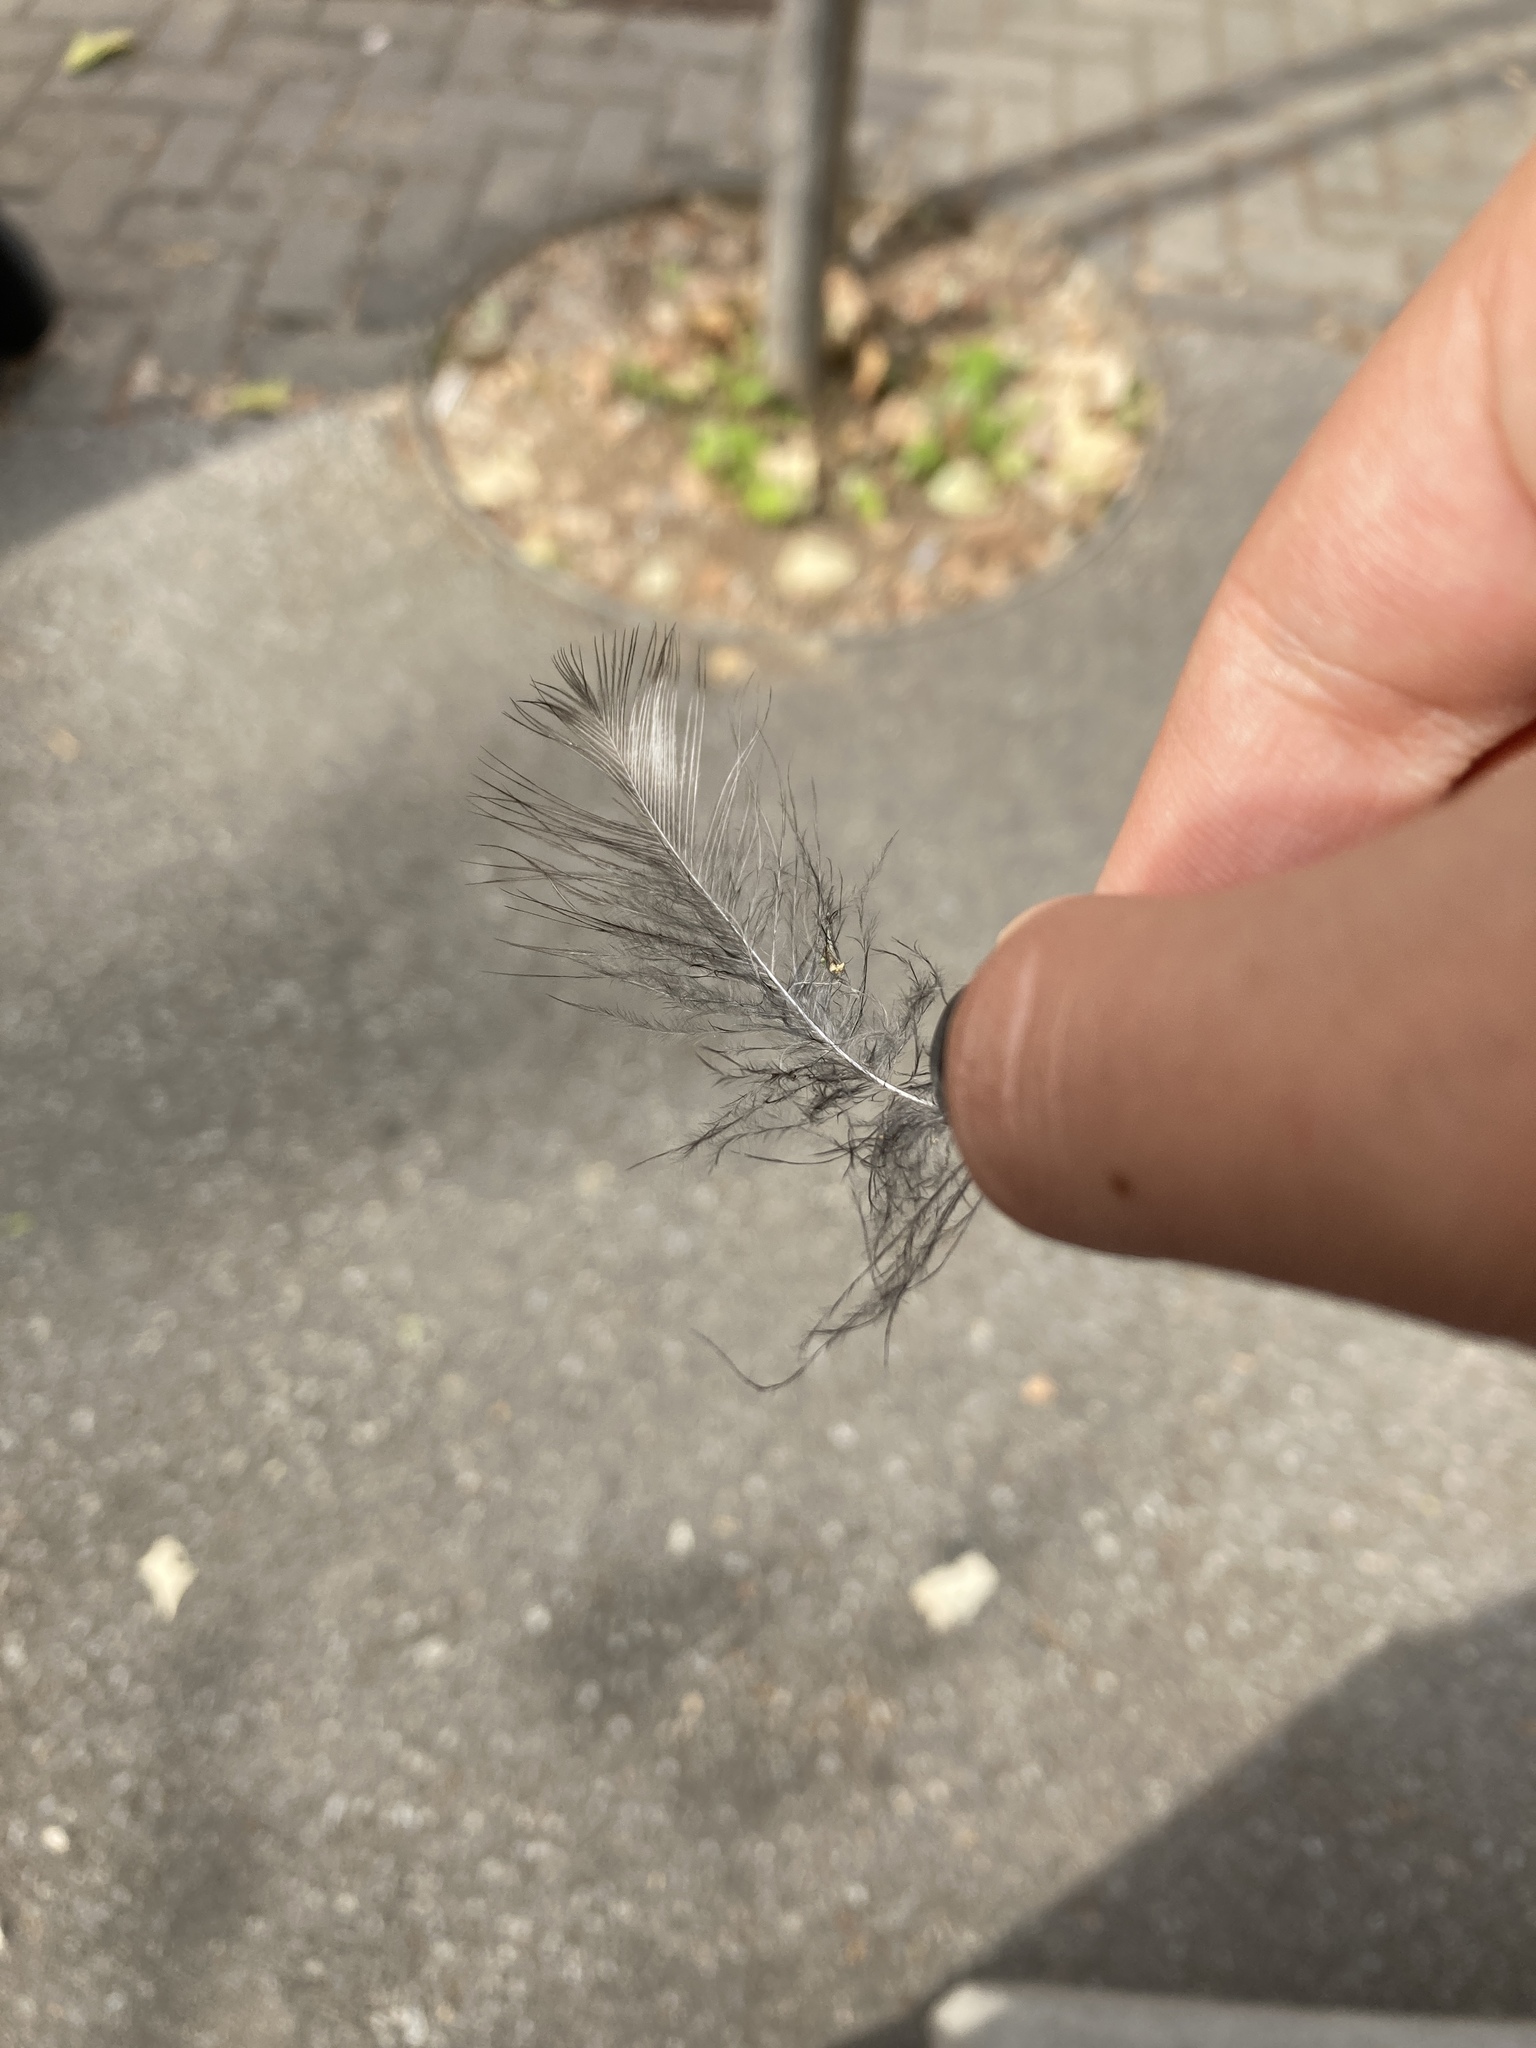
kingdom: Animalia
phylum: Chordata
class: Aves
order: Passeriformes
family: Corvidae
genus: Pica
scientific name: Pica pica
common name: Eurasian magpie
